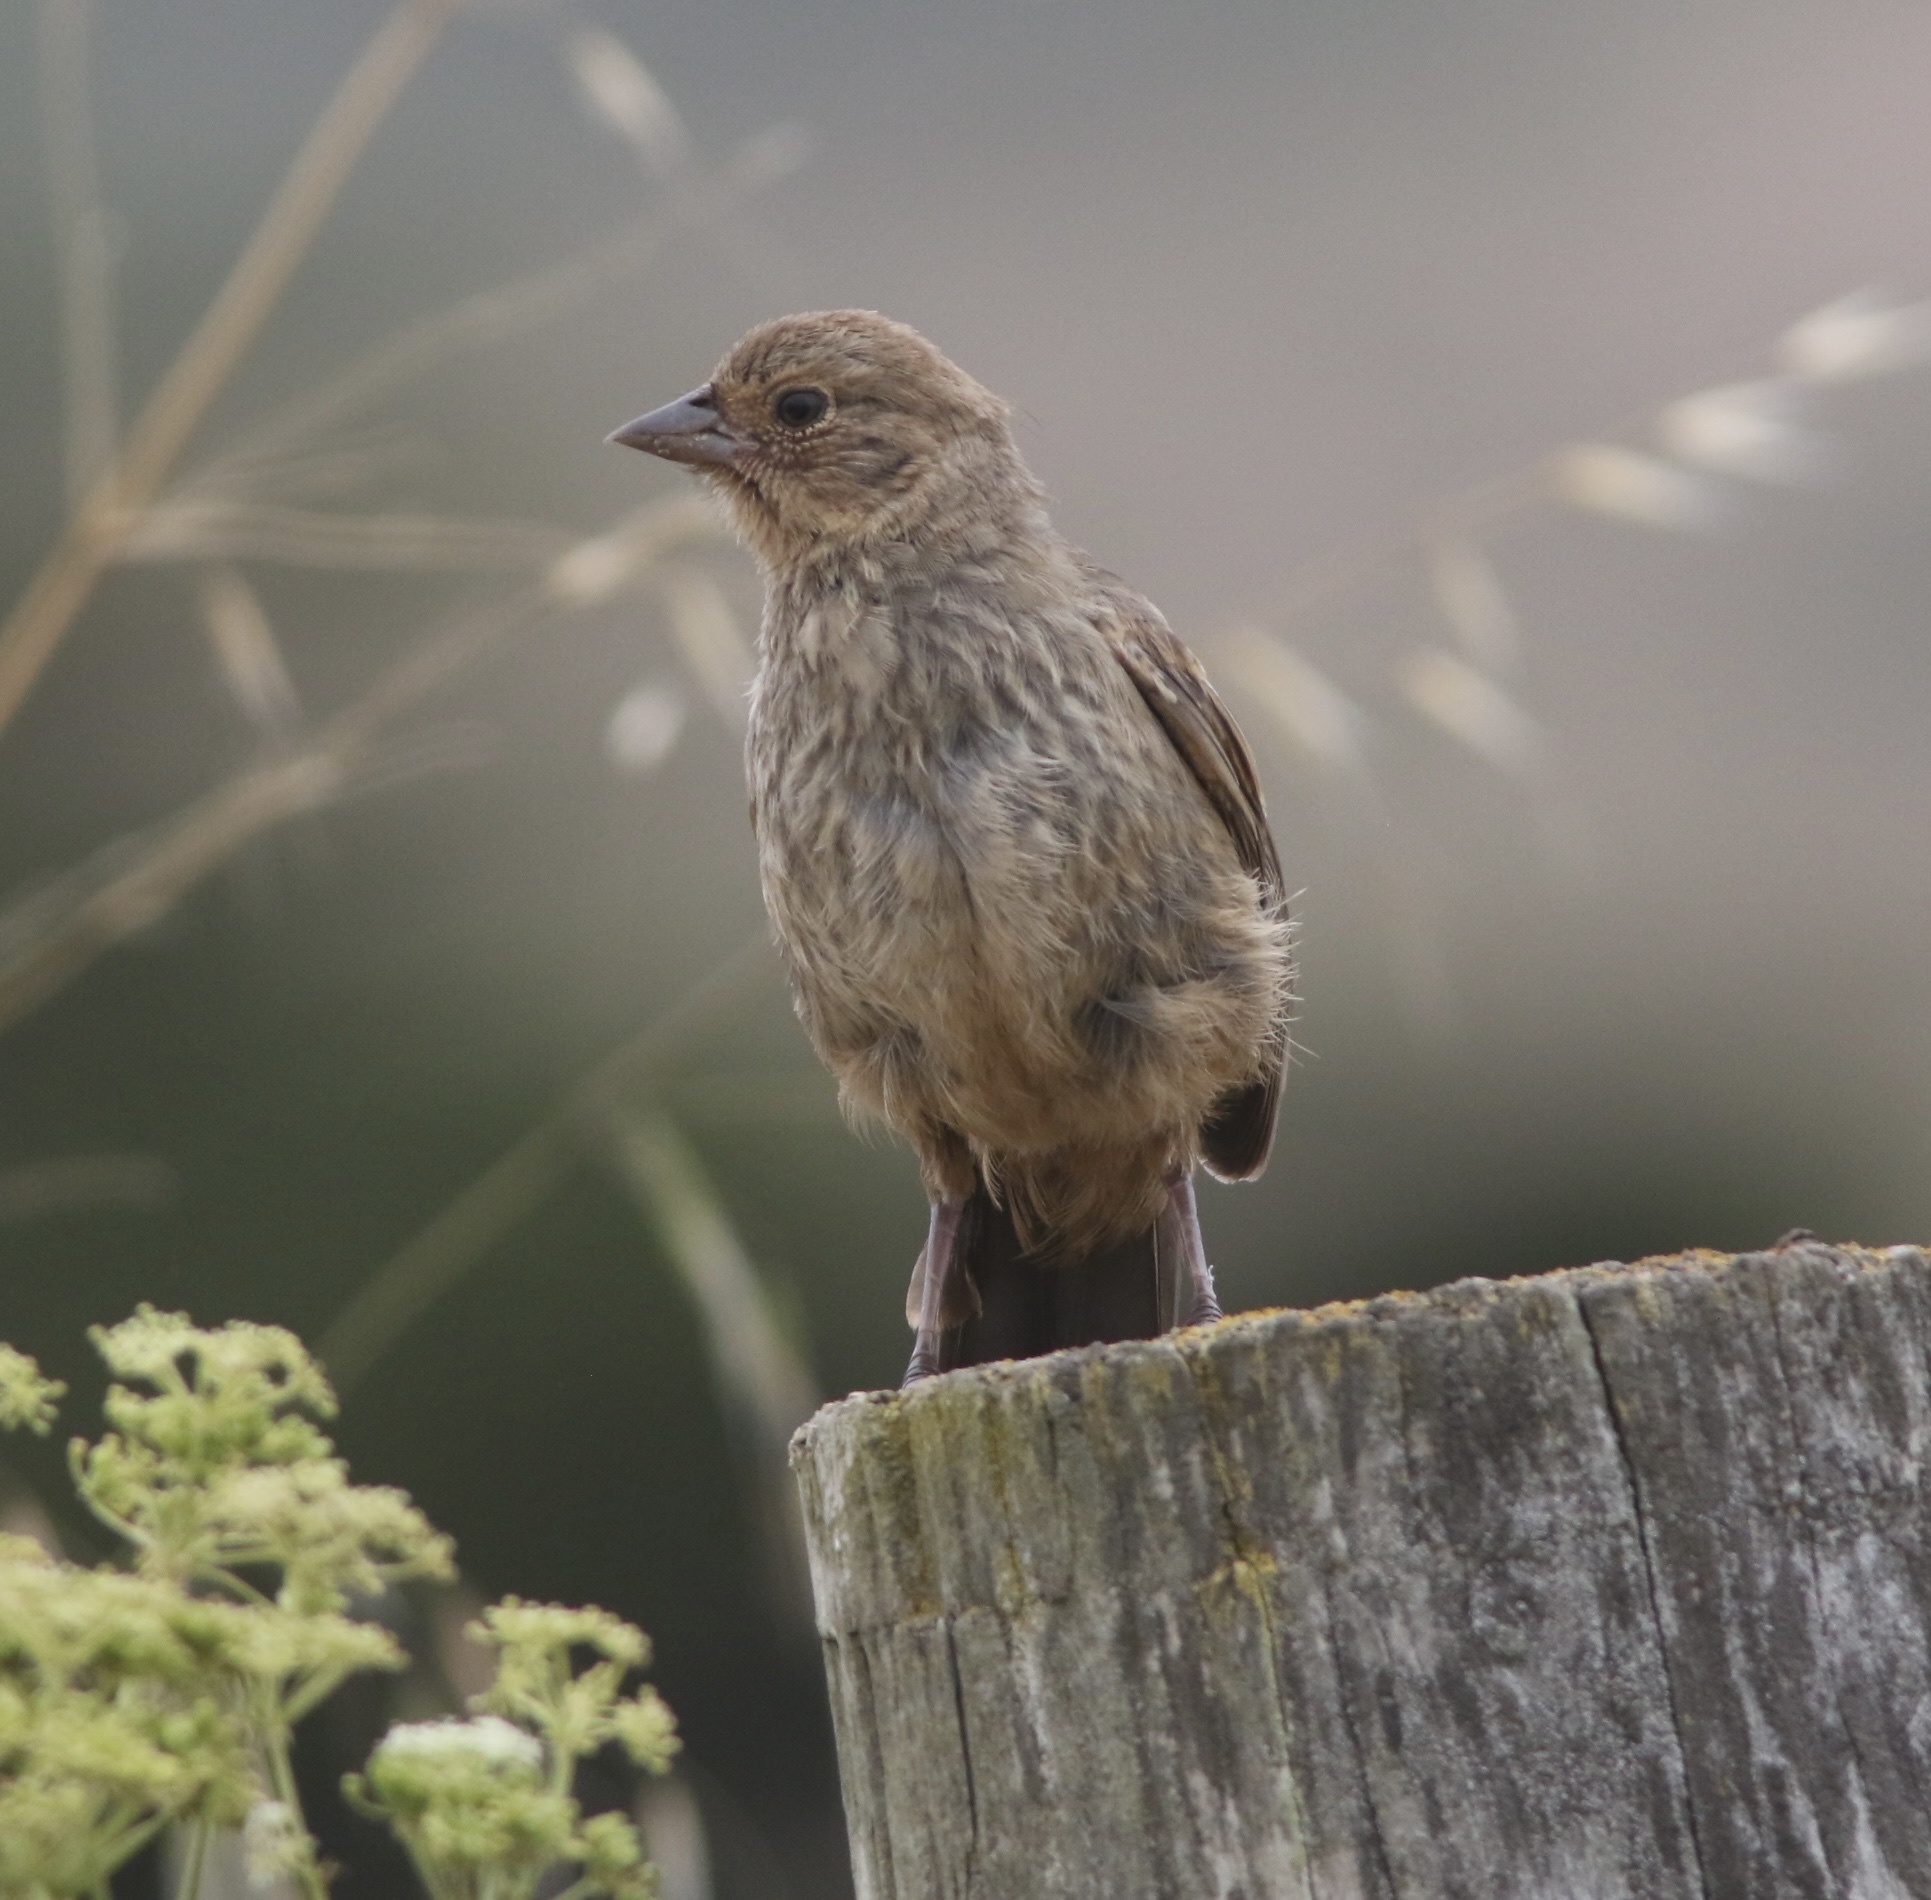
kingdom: Animalia
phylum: Chordata
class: Aves
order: Passeriformes
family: Passerellidae
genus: Melozone
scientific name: Melozone crissalis
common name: California towhee
